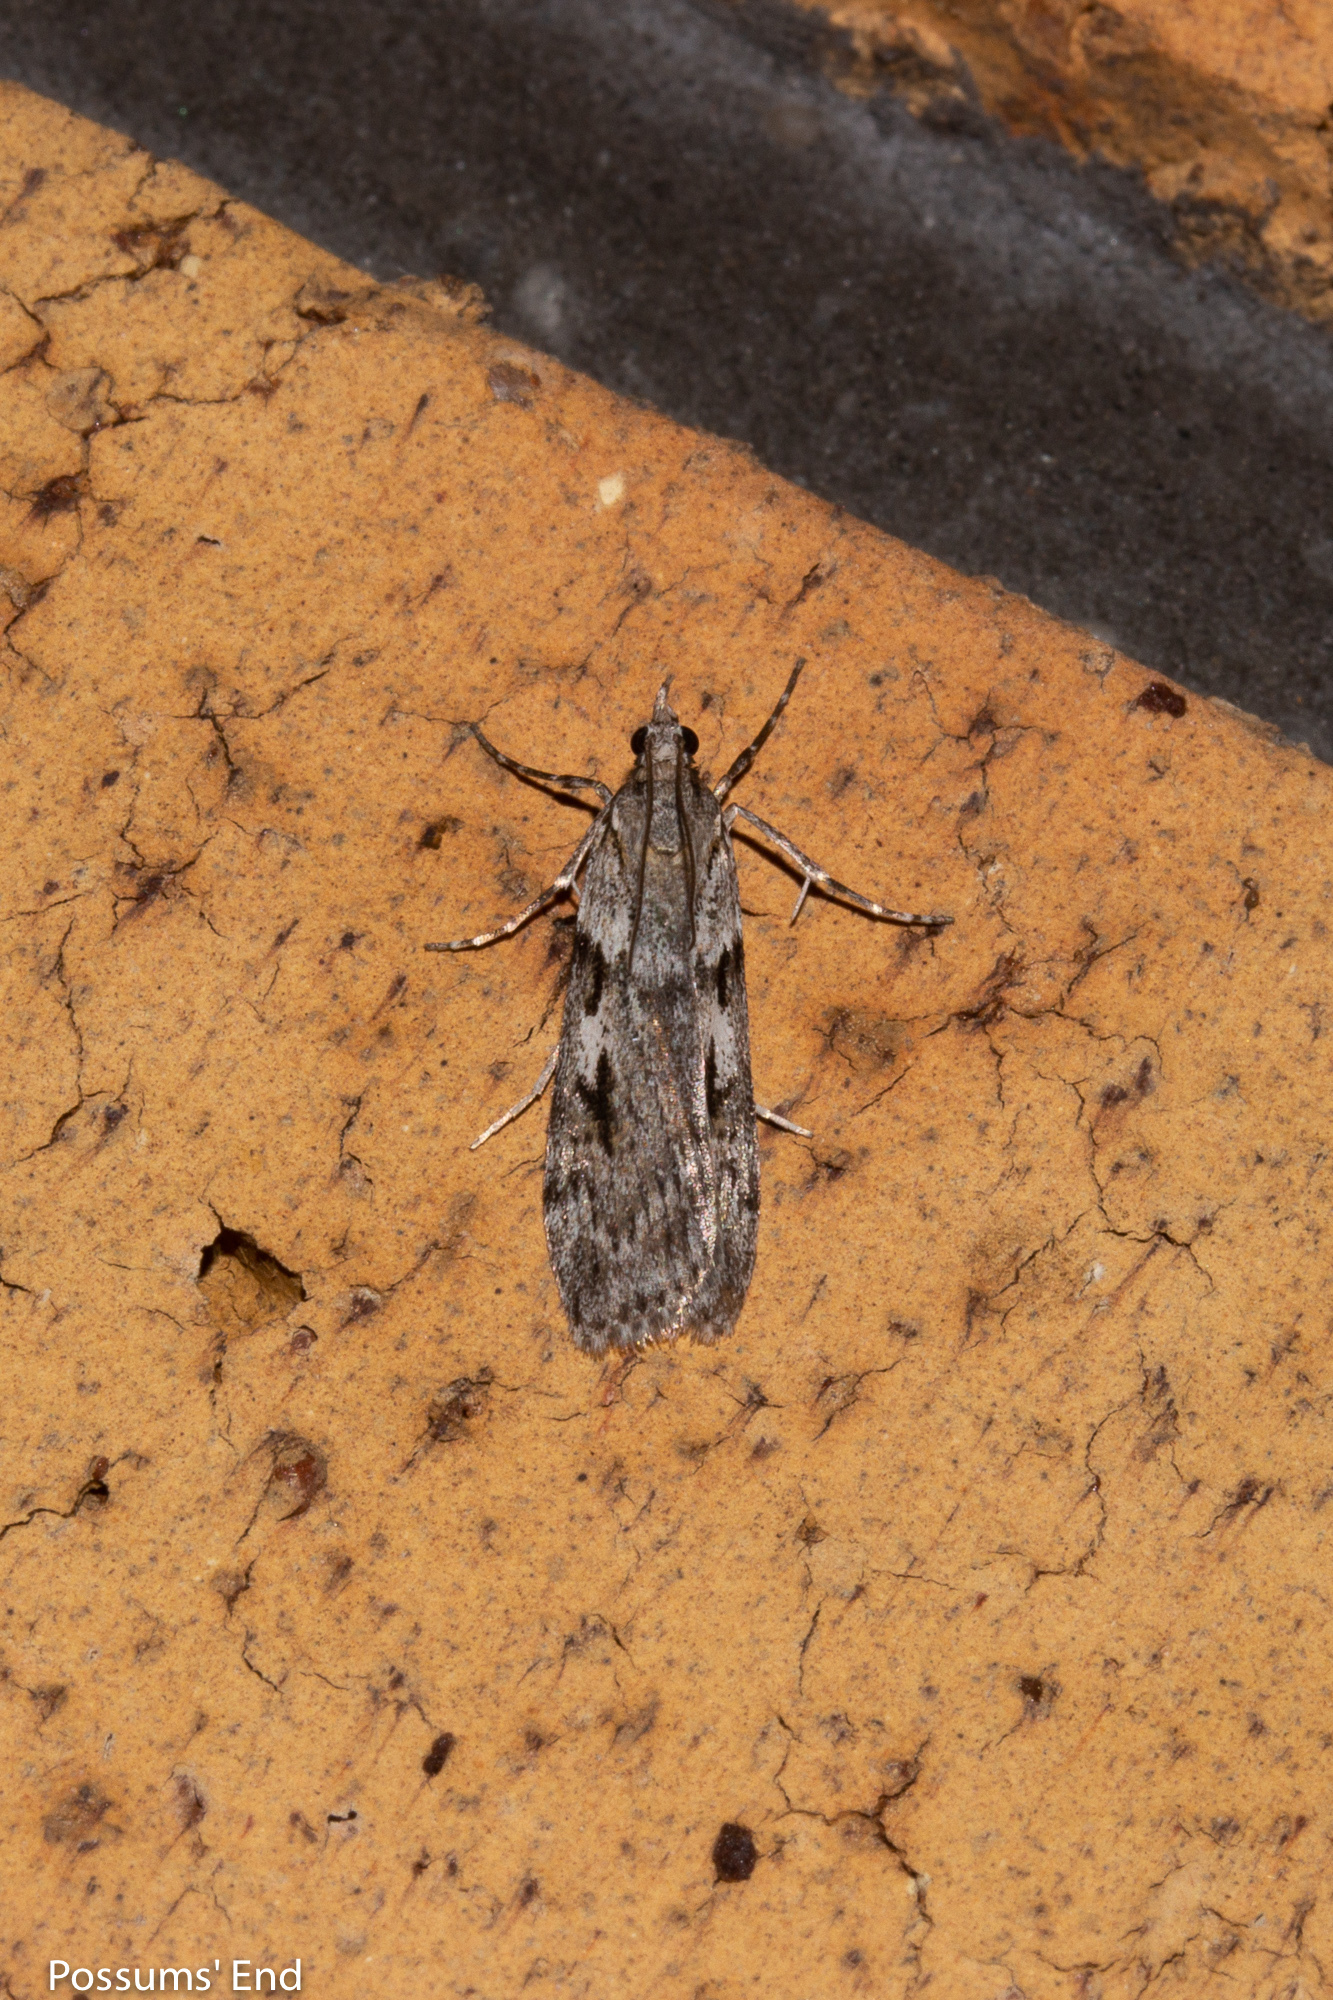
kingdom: Animalia
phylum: Arthropoda
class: Insecta
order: Lepidoptera
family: Crambidae
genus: Scoparia
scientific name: Scoparia halopis
